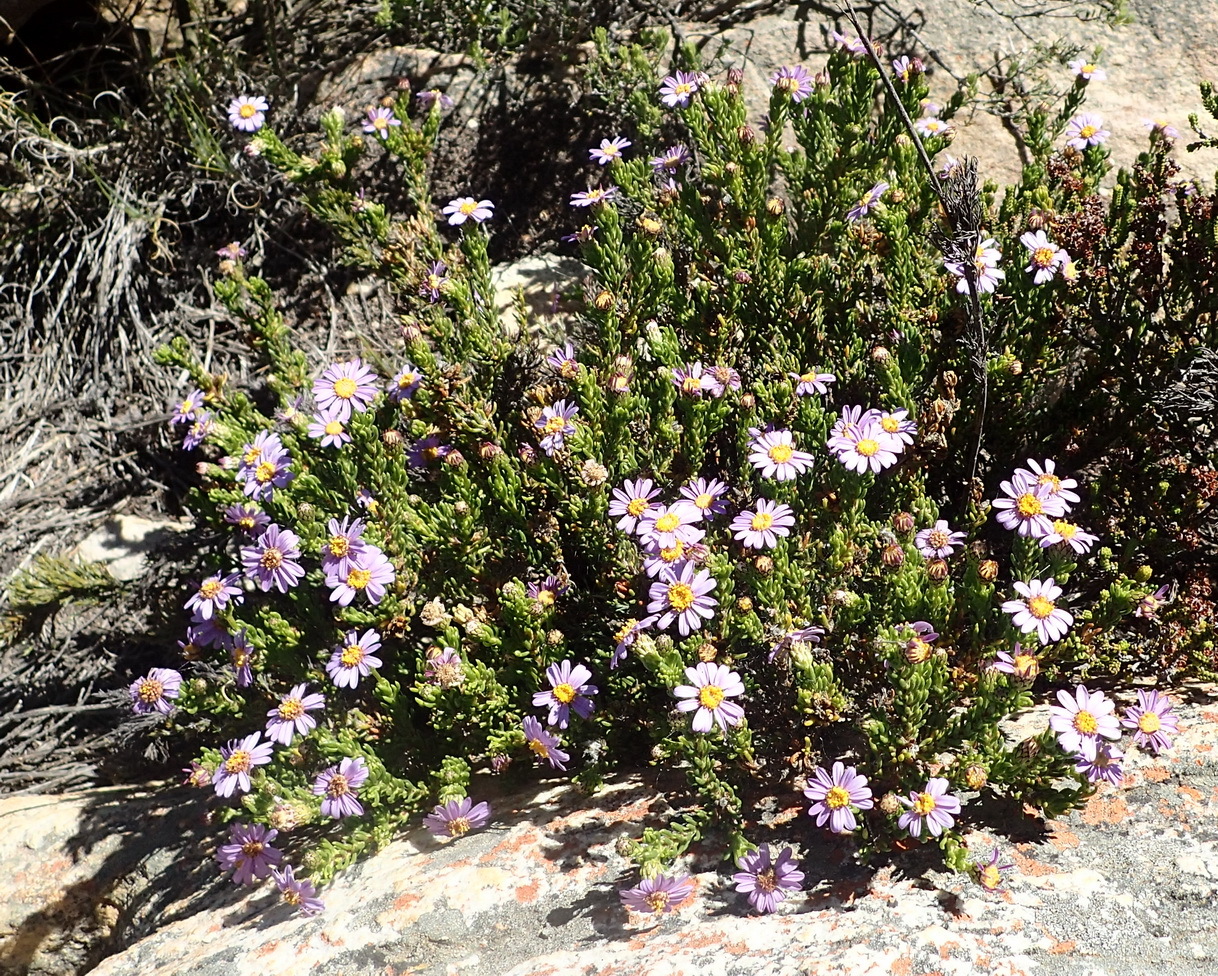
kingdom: Plantae
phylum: Tracheophyta
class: Magnoliopsida
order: Asterales
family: Asteraceae
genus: Felicia
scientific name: Felicia oleosa
